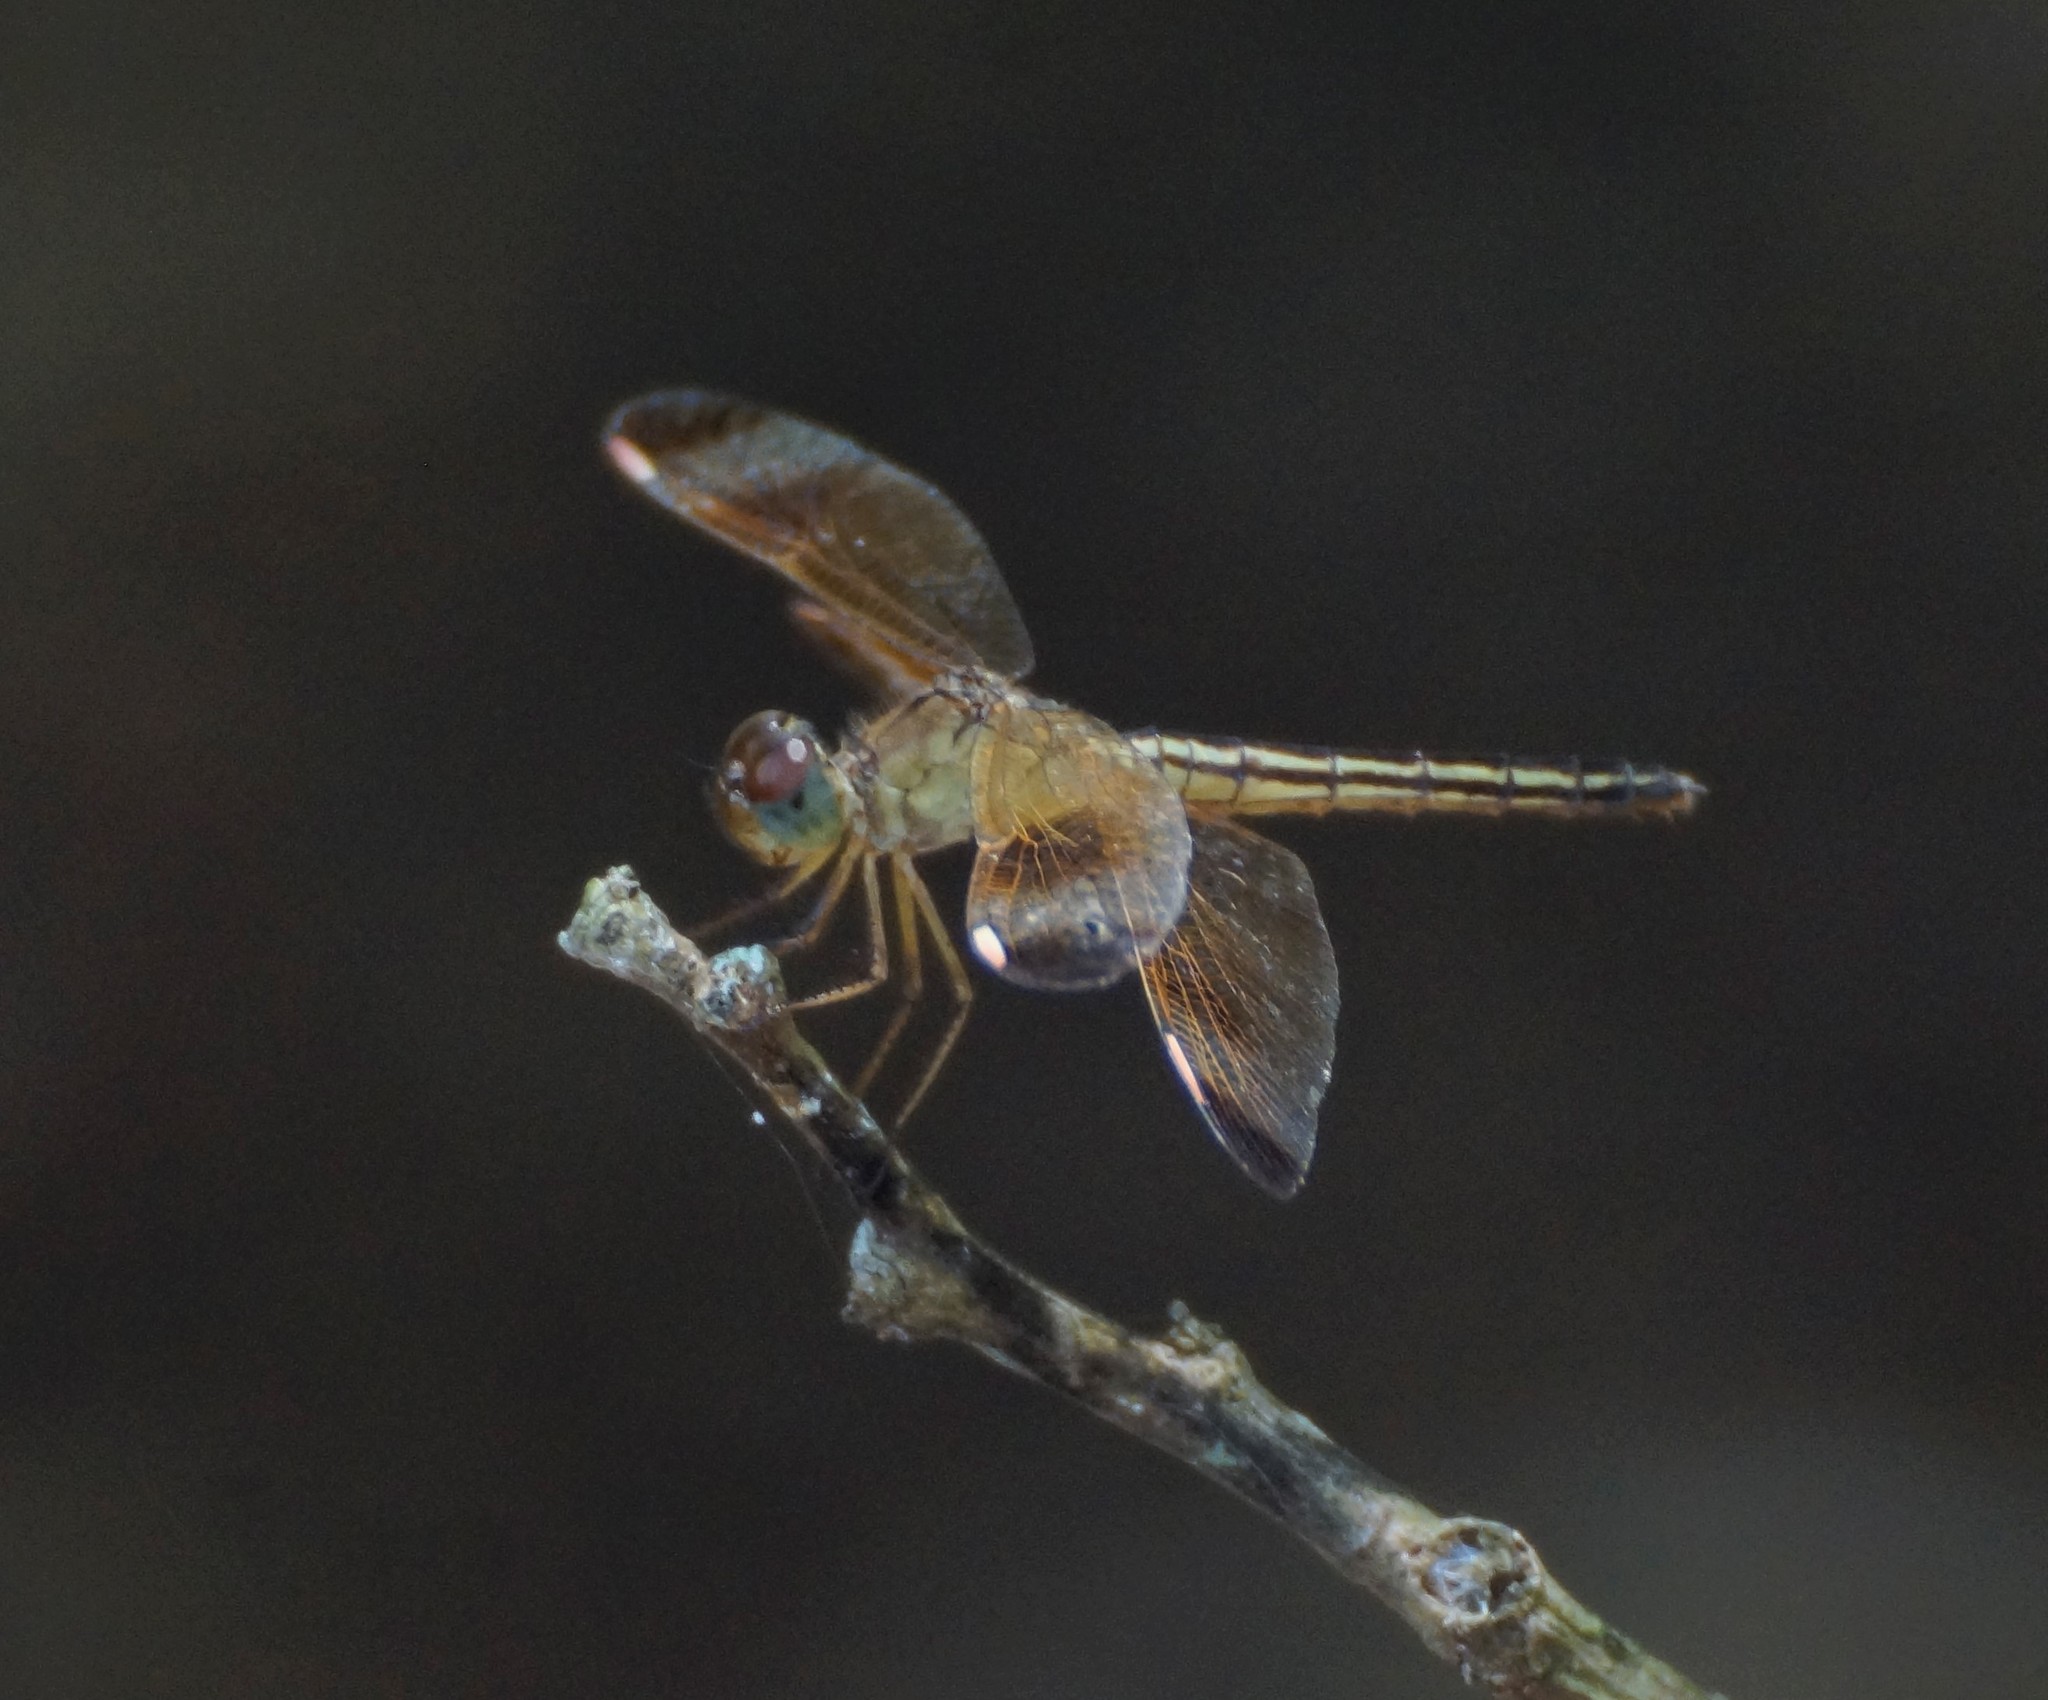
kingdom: Animalia
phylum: Arthropoda
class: Insecta
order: Odonata
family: Libellulidae
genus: Neurothemis
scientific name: Neurothemis stigmatizans
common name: Painted grasshawk
